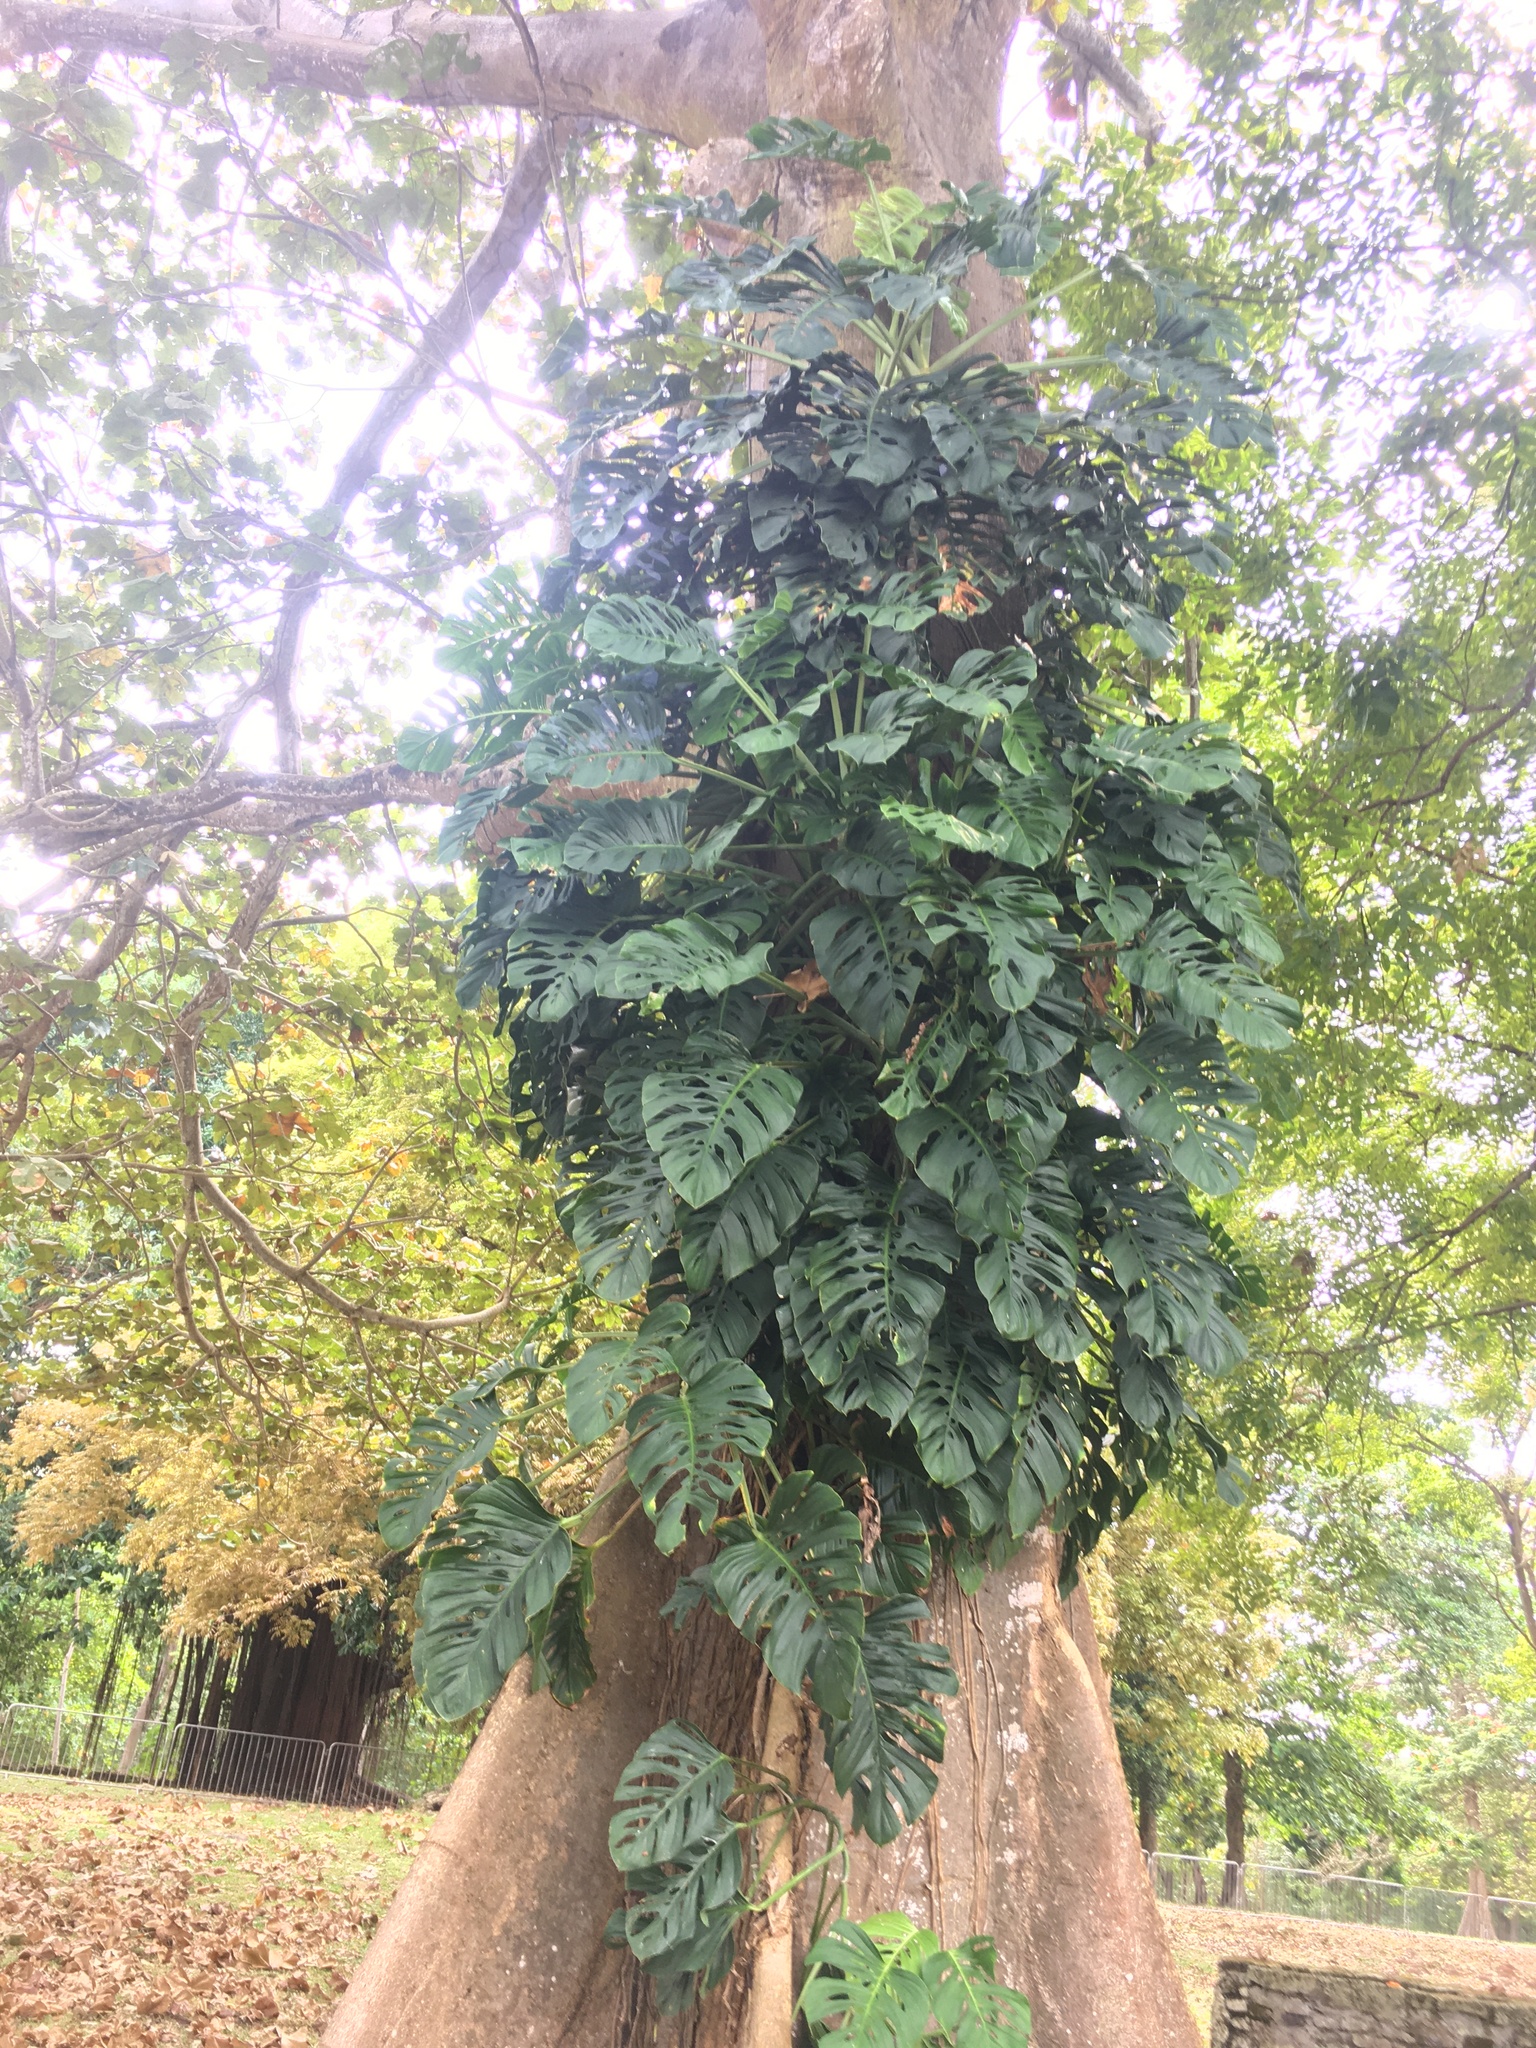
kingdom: Plantae
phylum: Tracheophyta
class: Liliopsida
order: Alismatales
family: Araceae
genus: Monstera
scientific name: Monstera adansonii
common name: Tarovine
